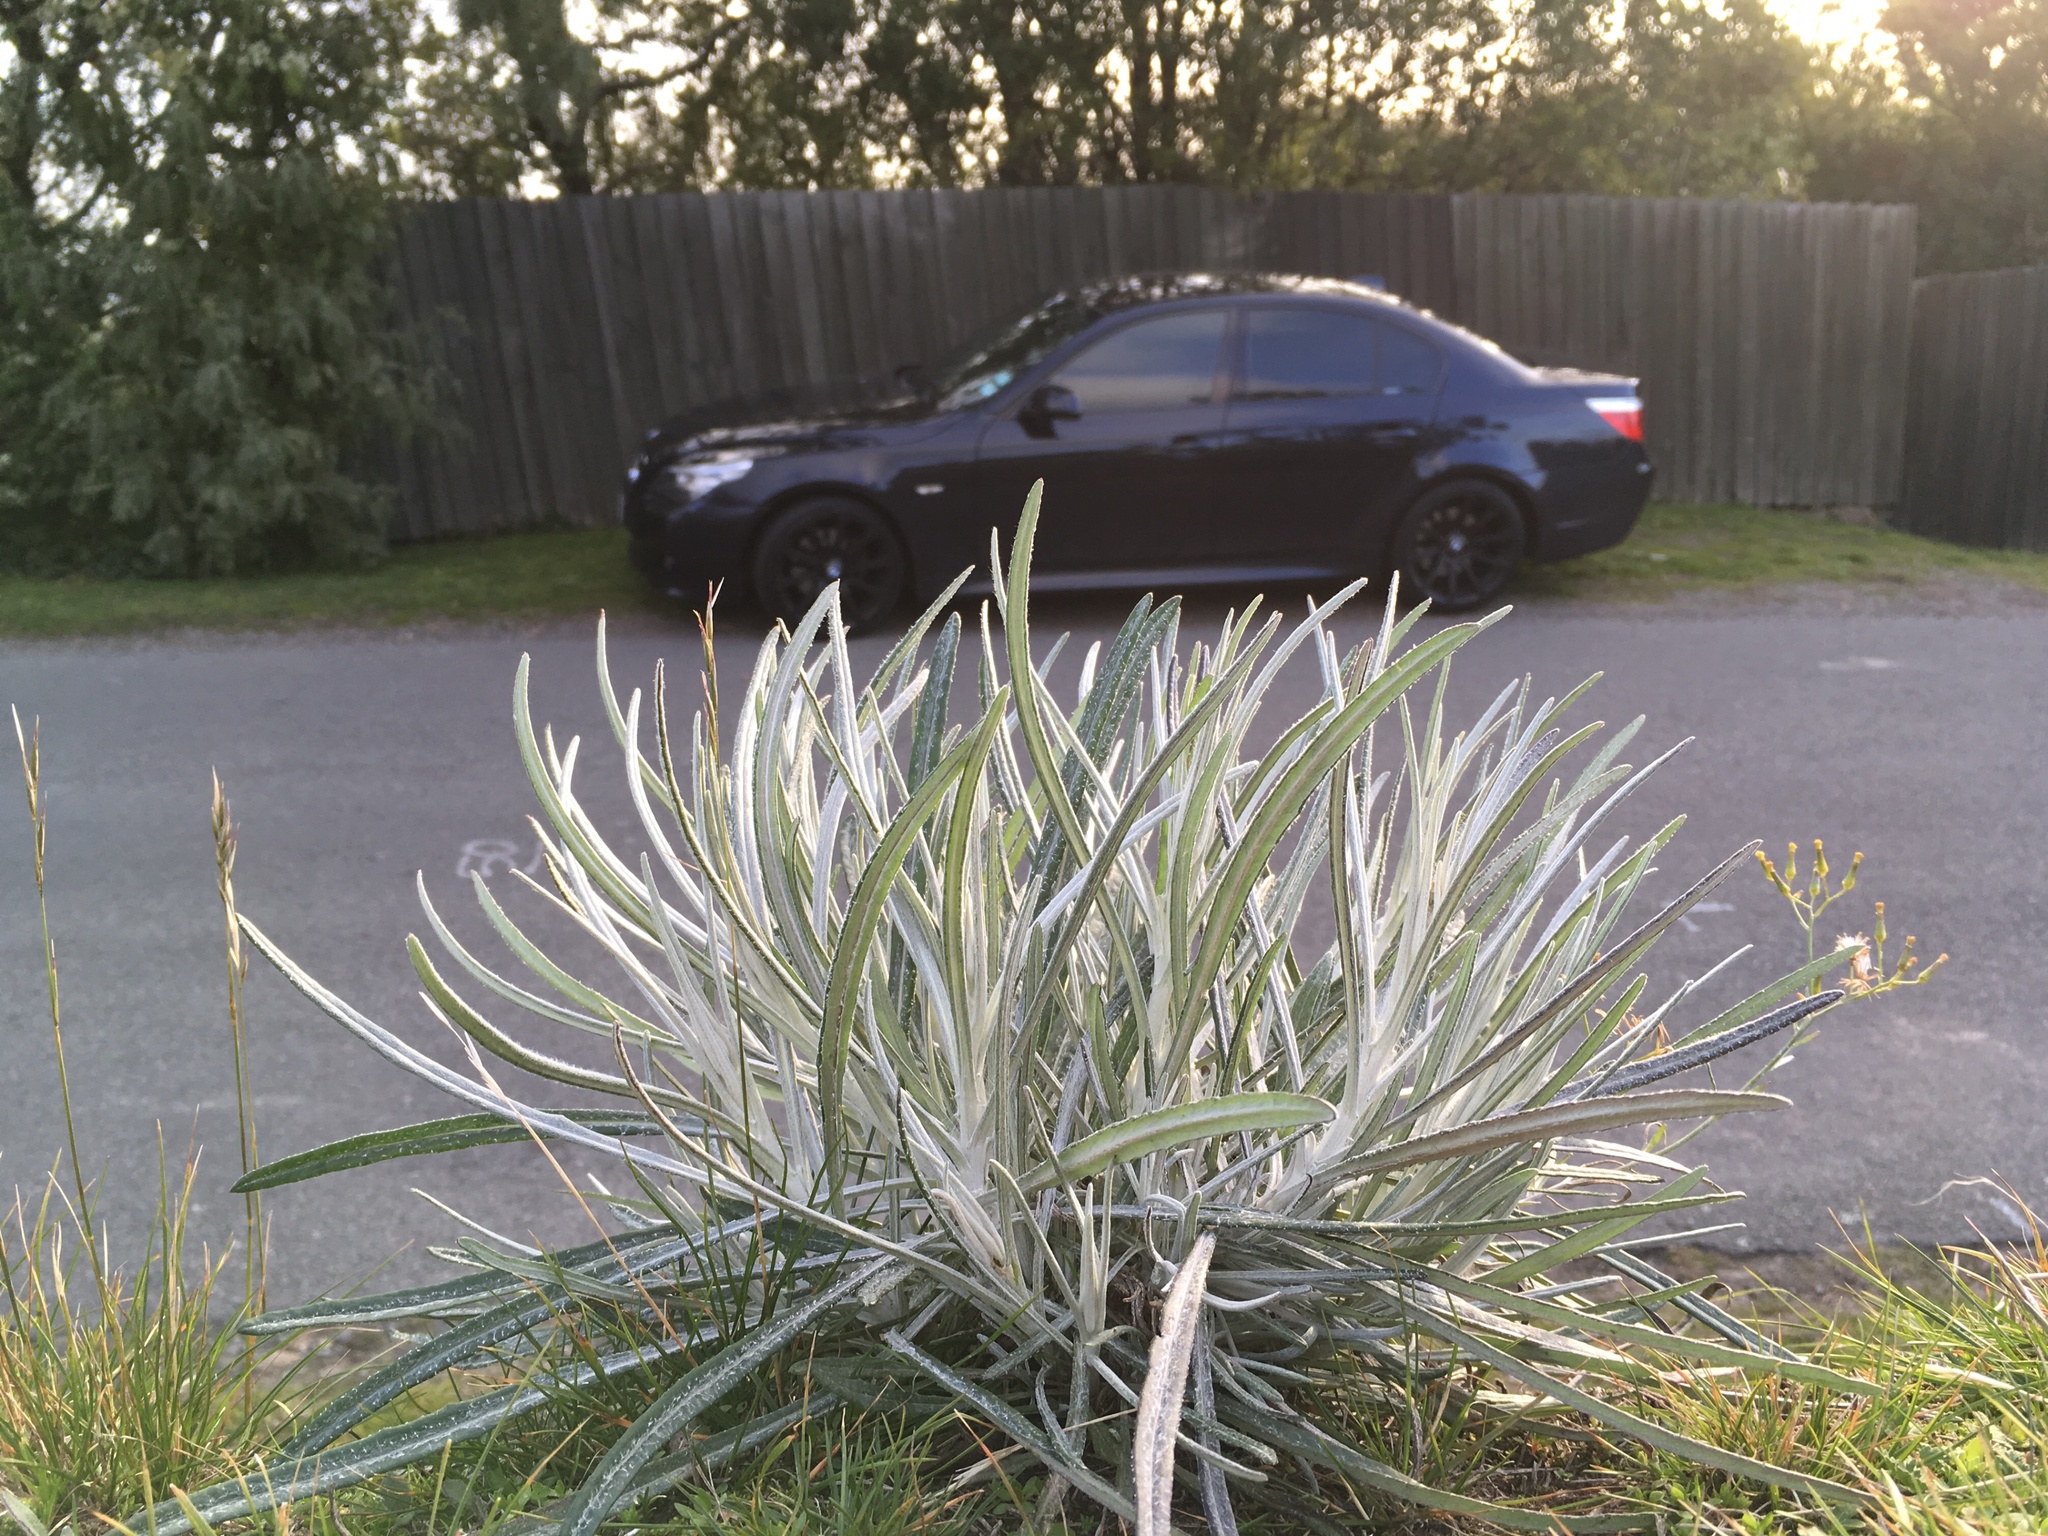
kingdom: Plantae
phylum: Tracheophyta
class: Magnoliopsida
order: Asterales
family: Asteraceae
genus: Senecio
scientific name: Senecio quadridentatus
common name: Cotton fireweed
